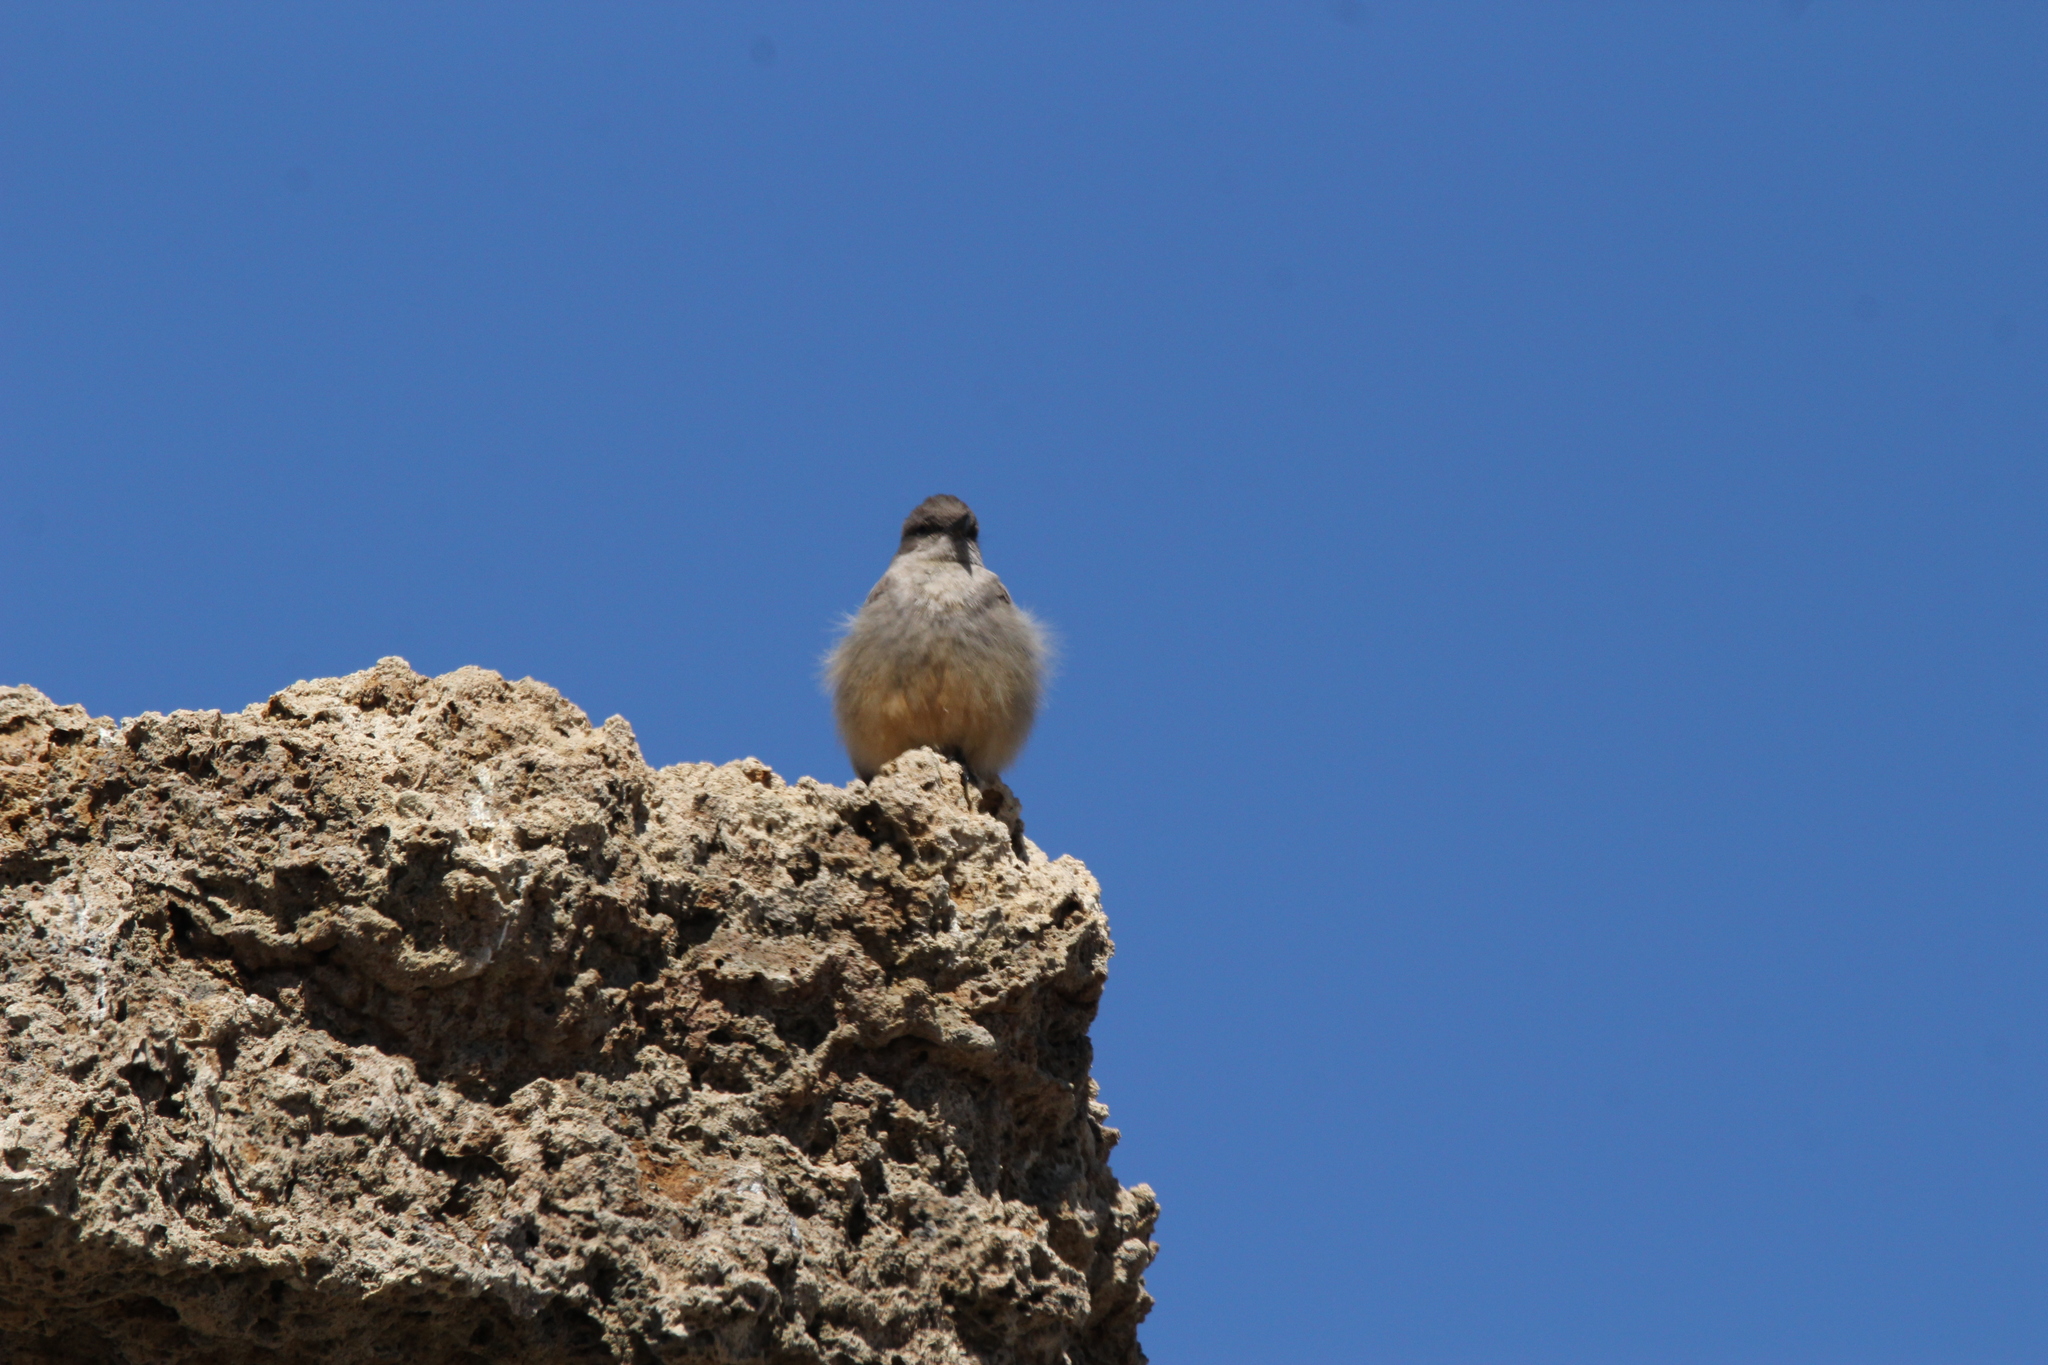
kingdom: Animalia
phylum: Chordata
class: Aves
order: Passeriformes
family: Tyrannidae
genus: Sayornis
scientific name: Sayornis saya
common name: Say's phoebe
